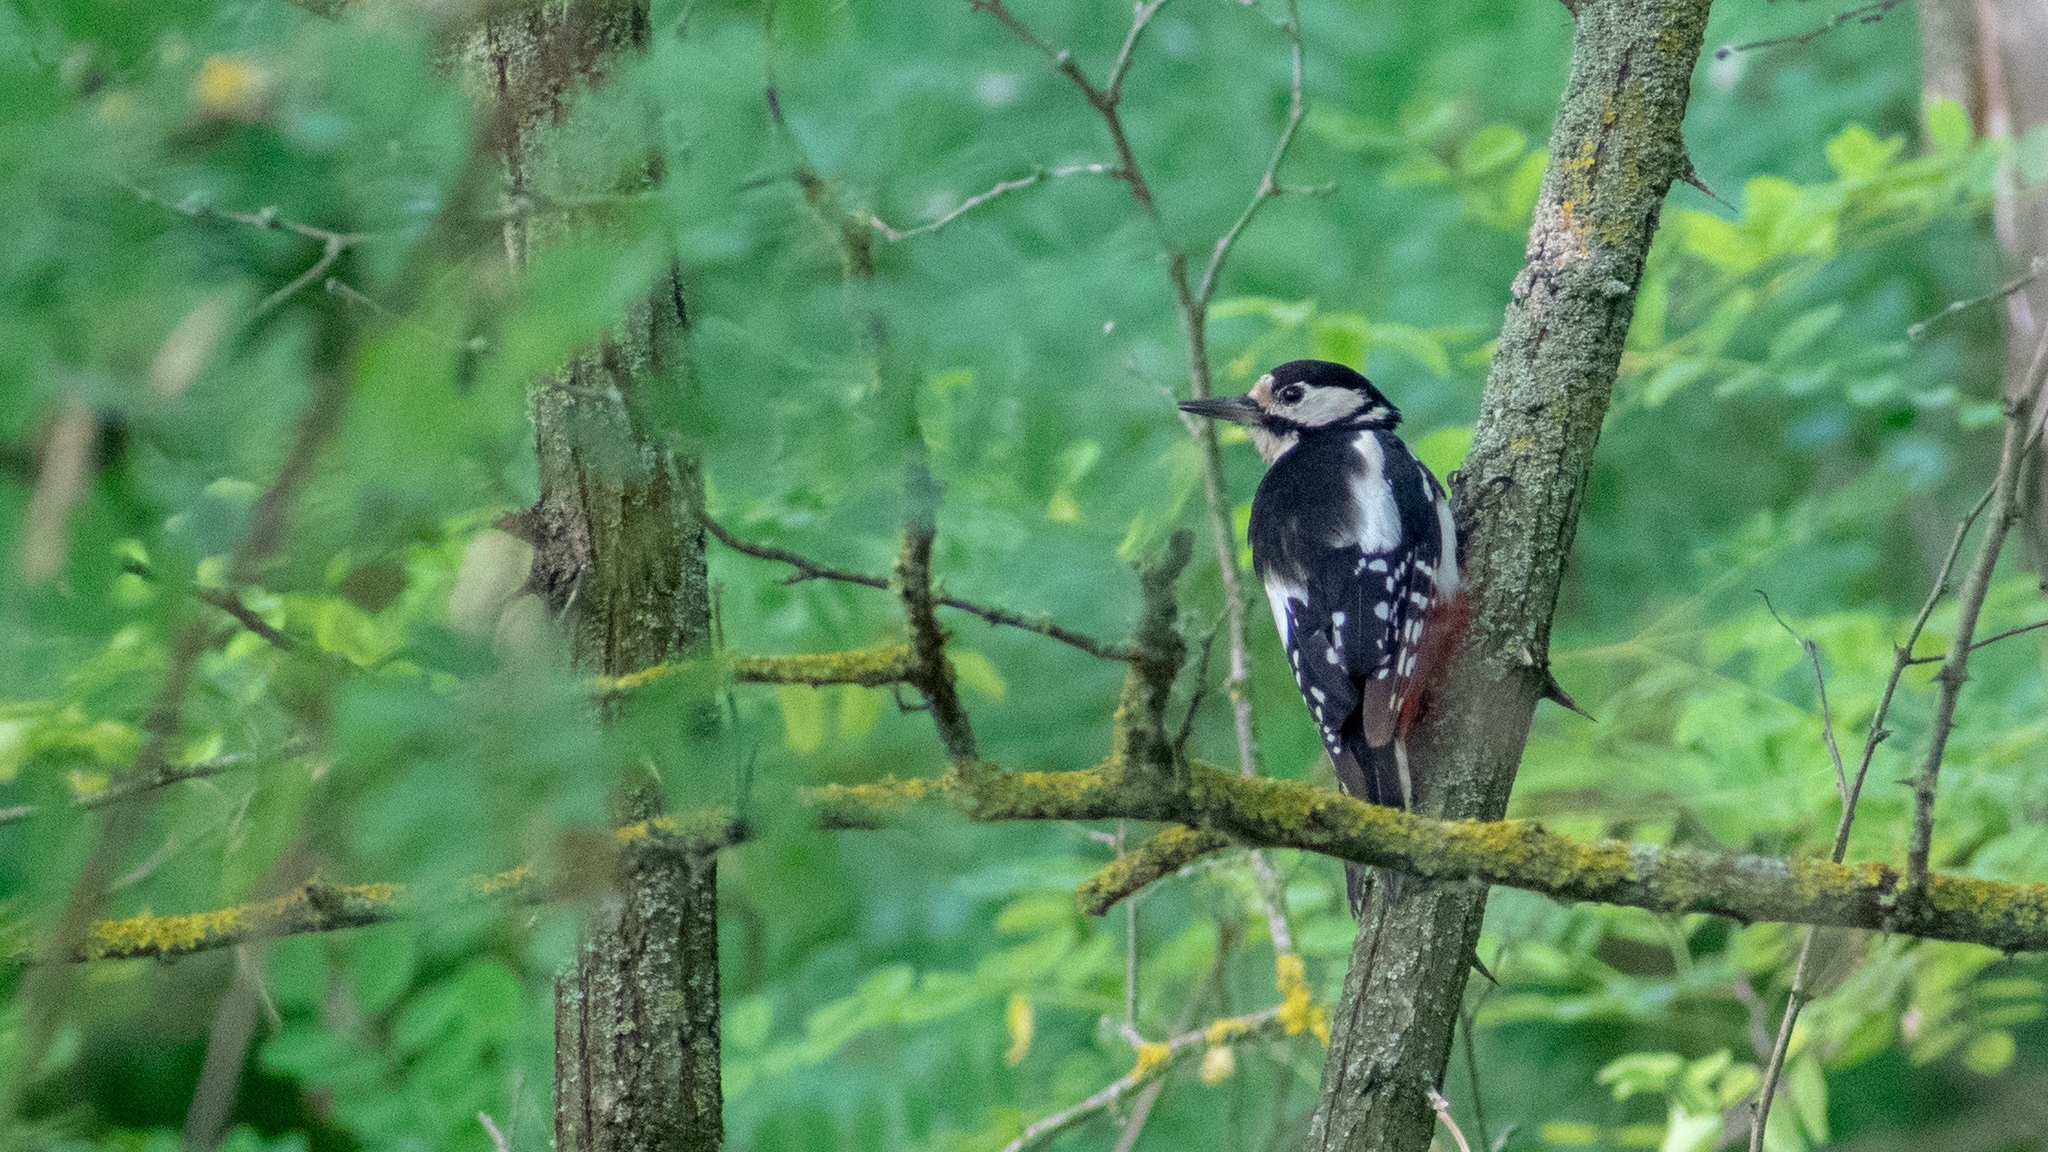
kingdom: Animalia
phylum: Chordata
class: Aves
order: Piciformes
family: Picidae
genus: Dendrocopos
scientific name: Dendrocopos major
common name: Great spotted woodpecker
